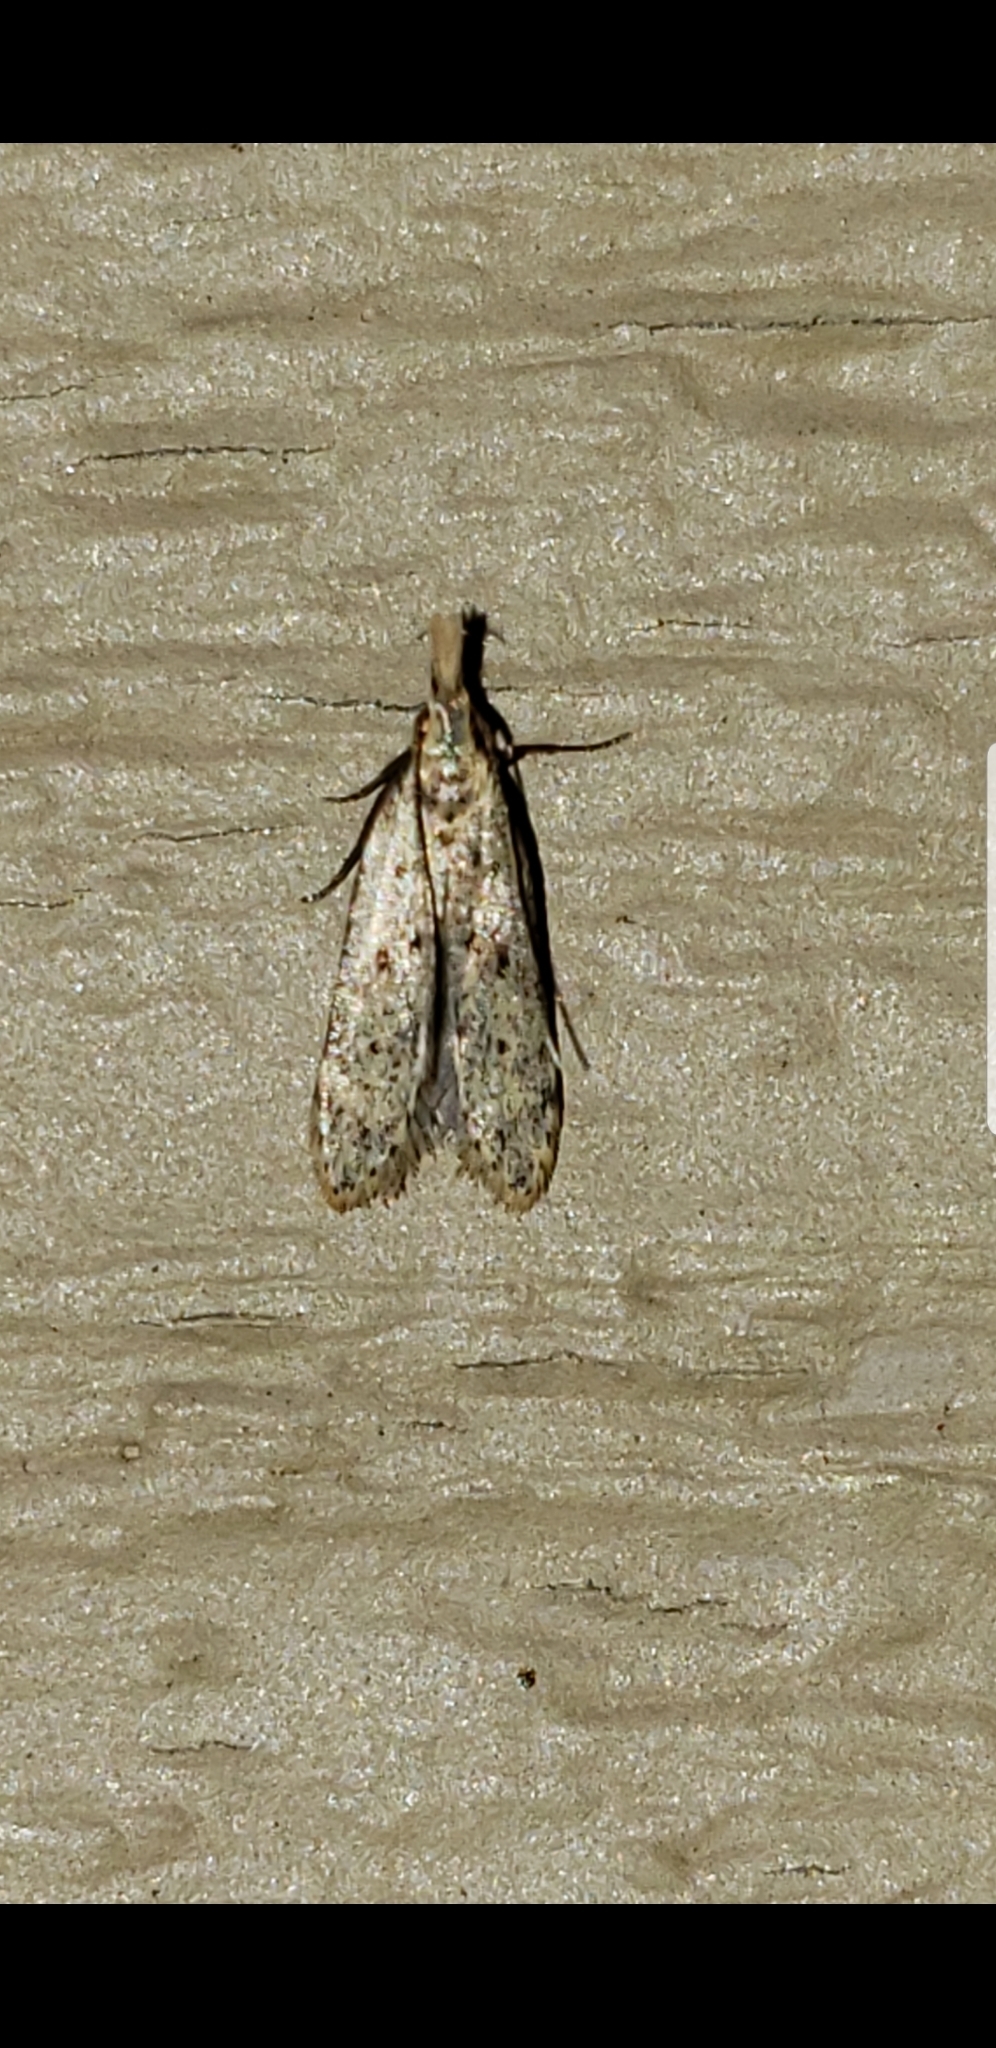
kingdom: Animalia
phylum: Arthropoda
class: Insecta
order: Lepidoptera
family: Gelechiidae
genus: Dichomeris
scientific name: Dichomeris punctipennella
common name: Many-spotted dichomeris moth
